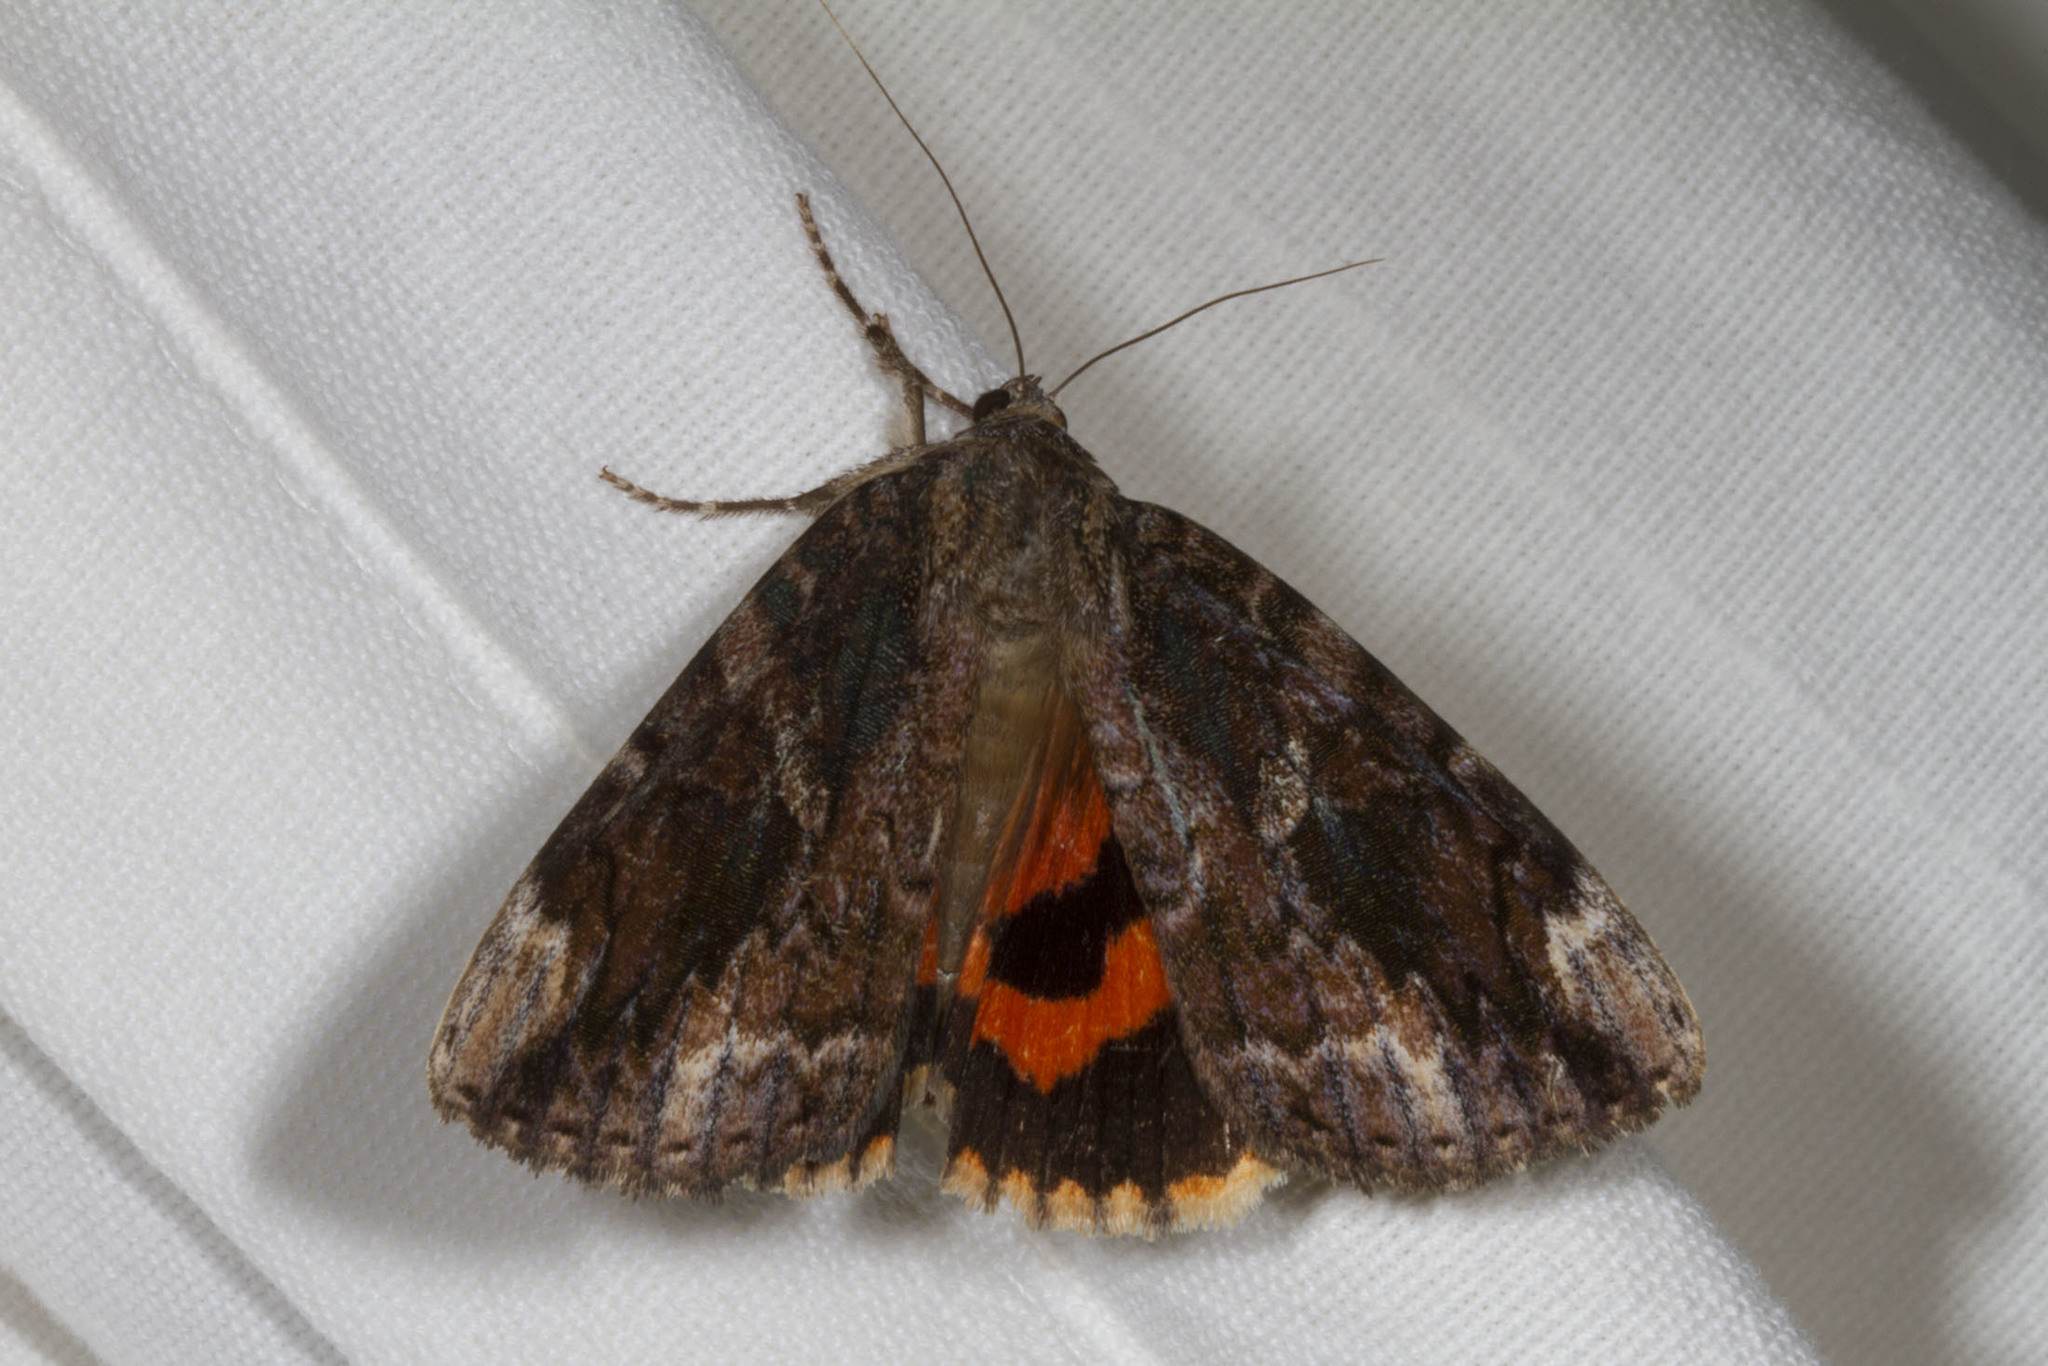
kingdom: Animalia
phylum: Arthropoda
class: Insecta
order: Lepidoptera
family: Erebidae
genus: Catocala
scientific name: Catocala innubens
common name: Betrothed underwing
